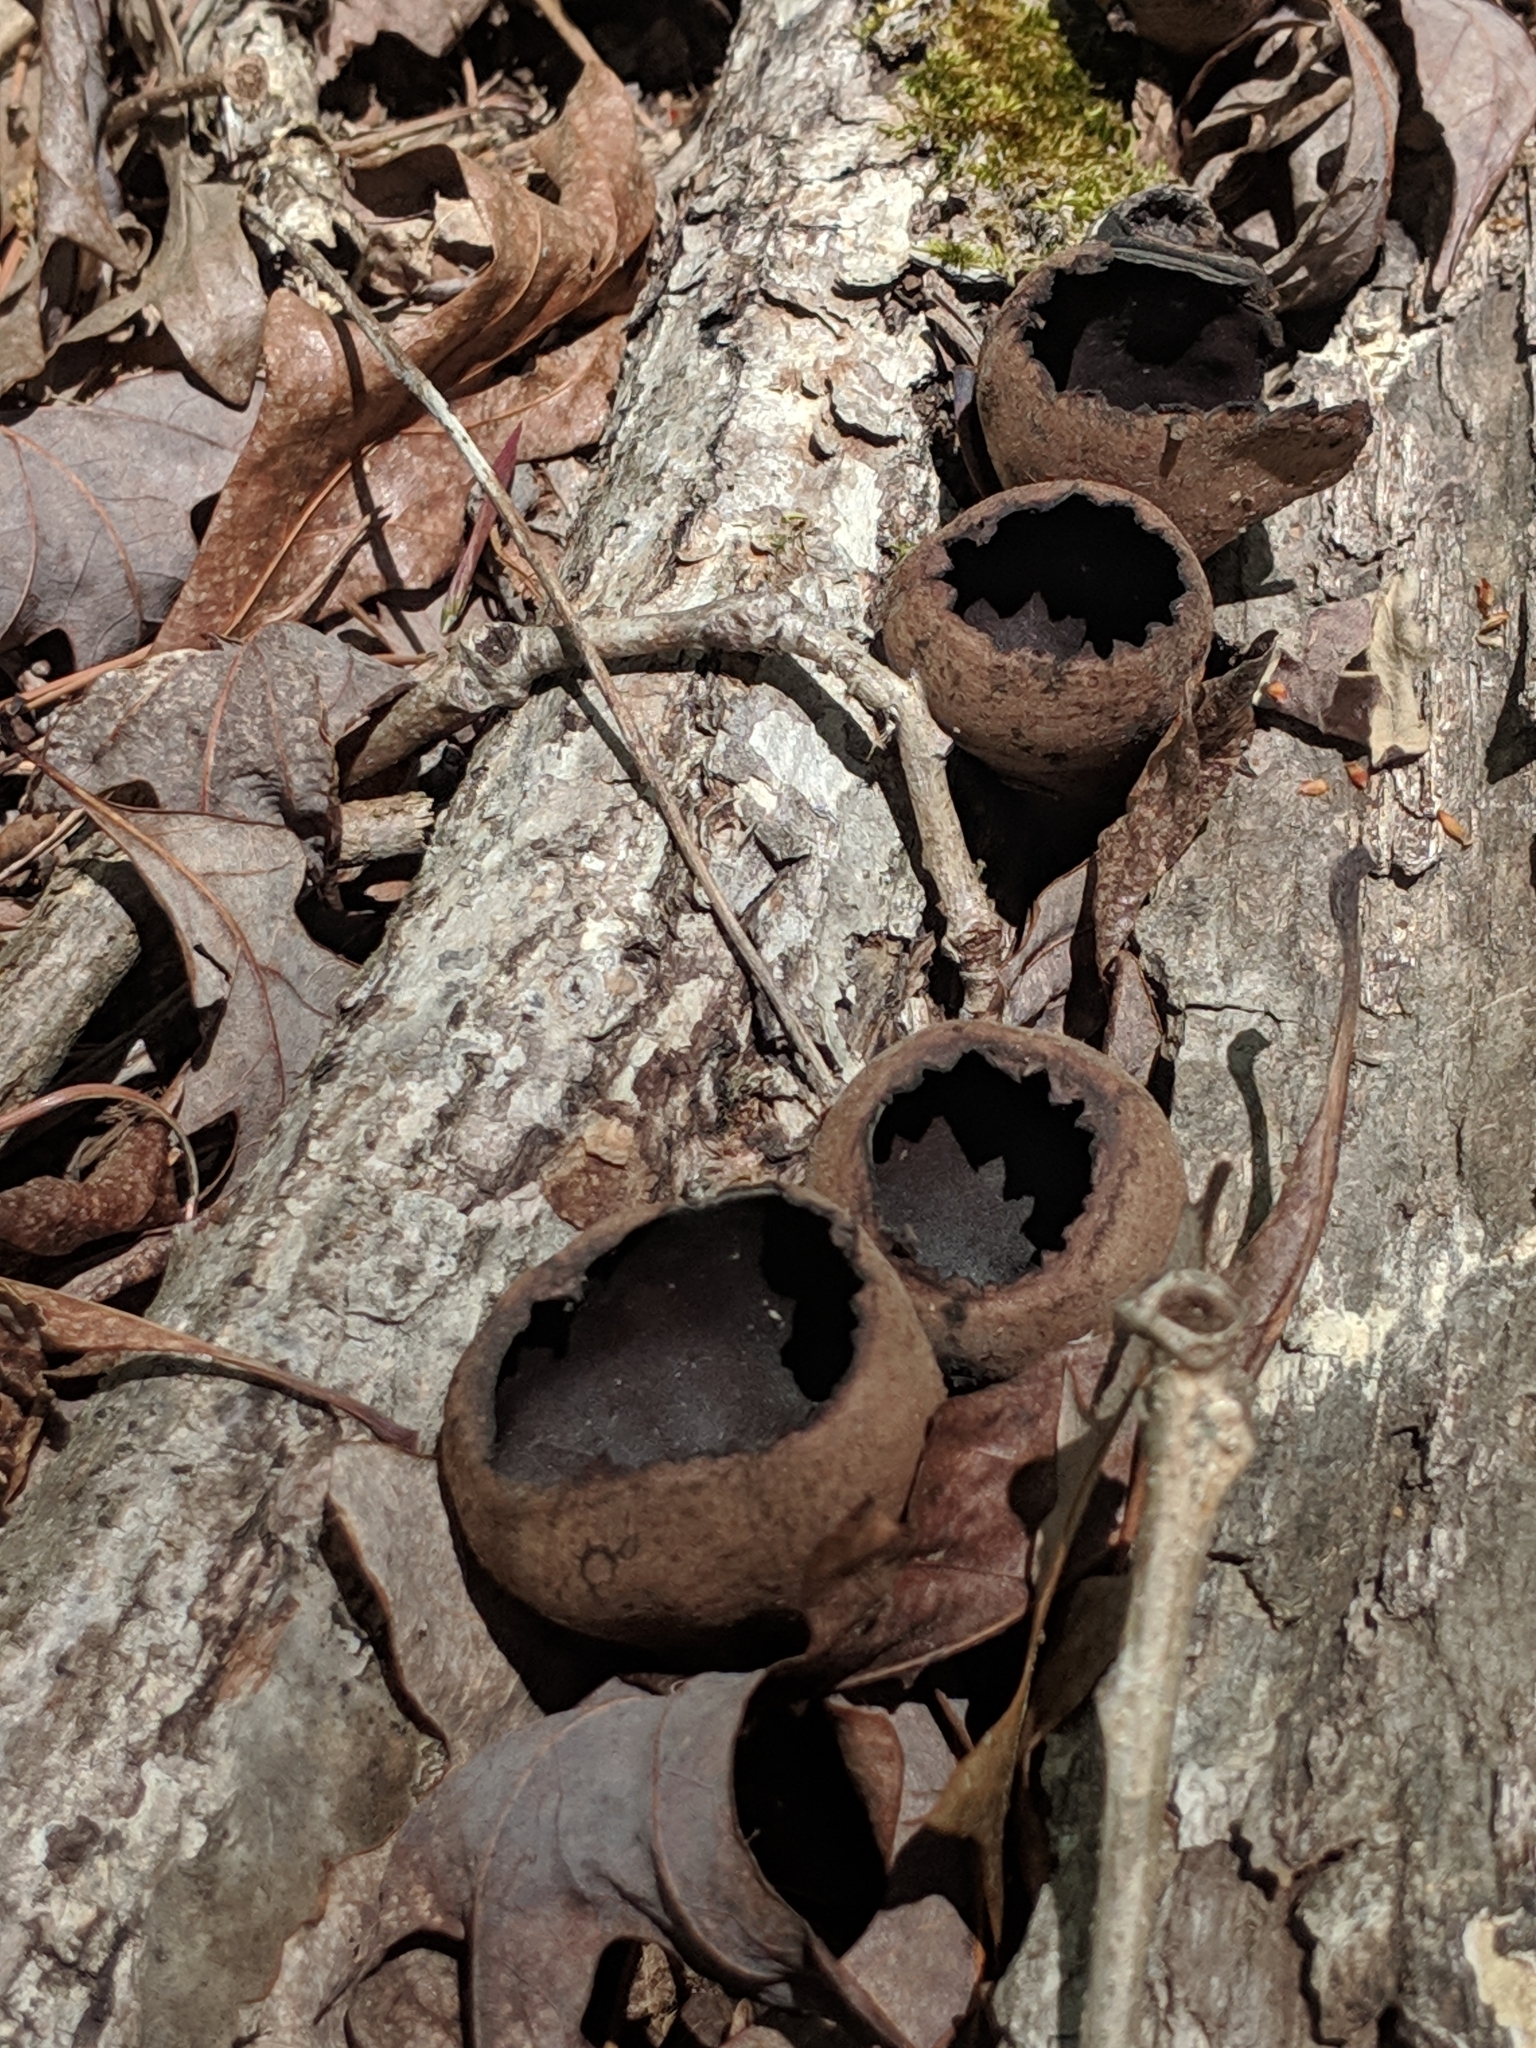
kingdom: Fungi
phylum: Ascomycota
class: Pezizomycetes
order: Pezizales
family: Sarcosomataceae
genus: Urnula
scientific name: Urnula craterium
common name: Devil's urn
